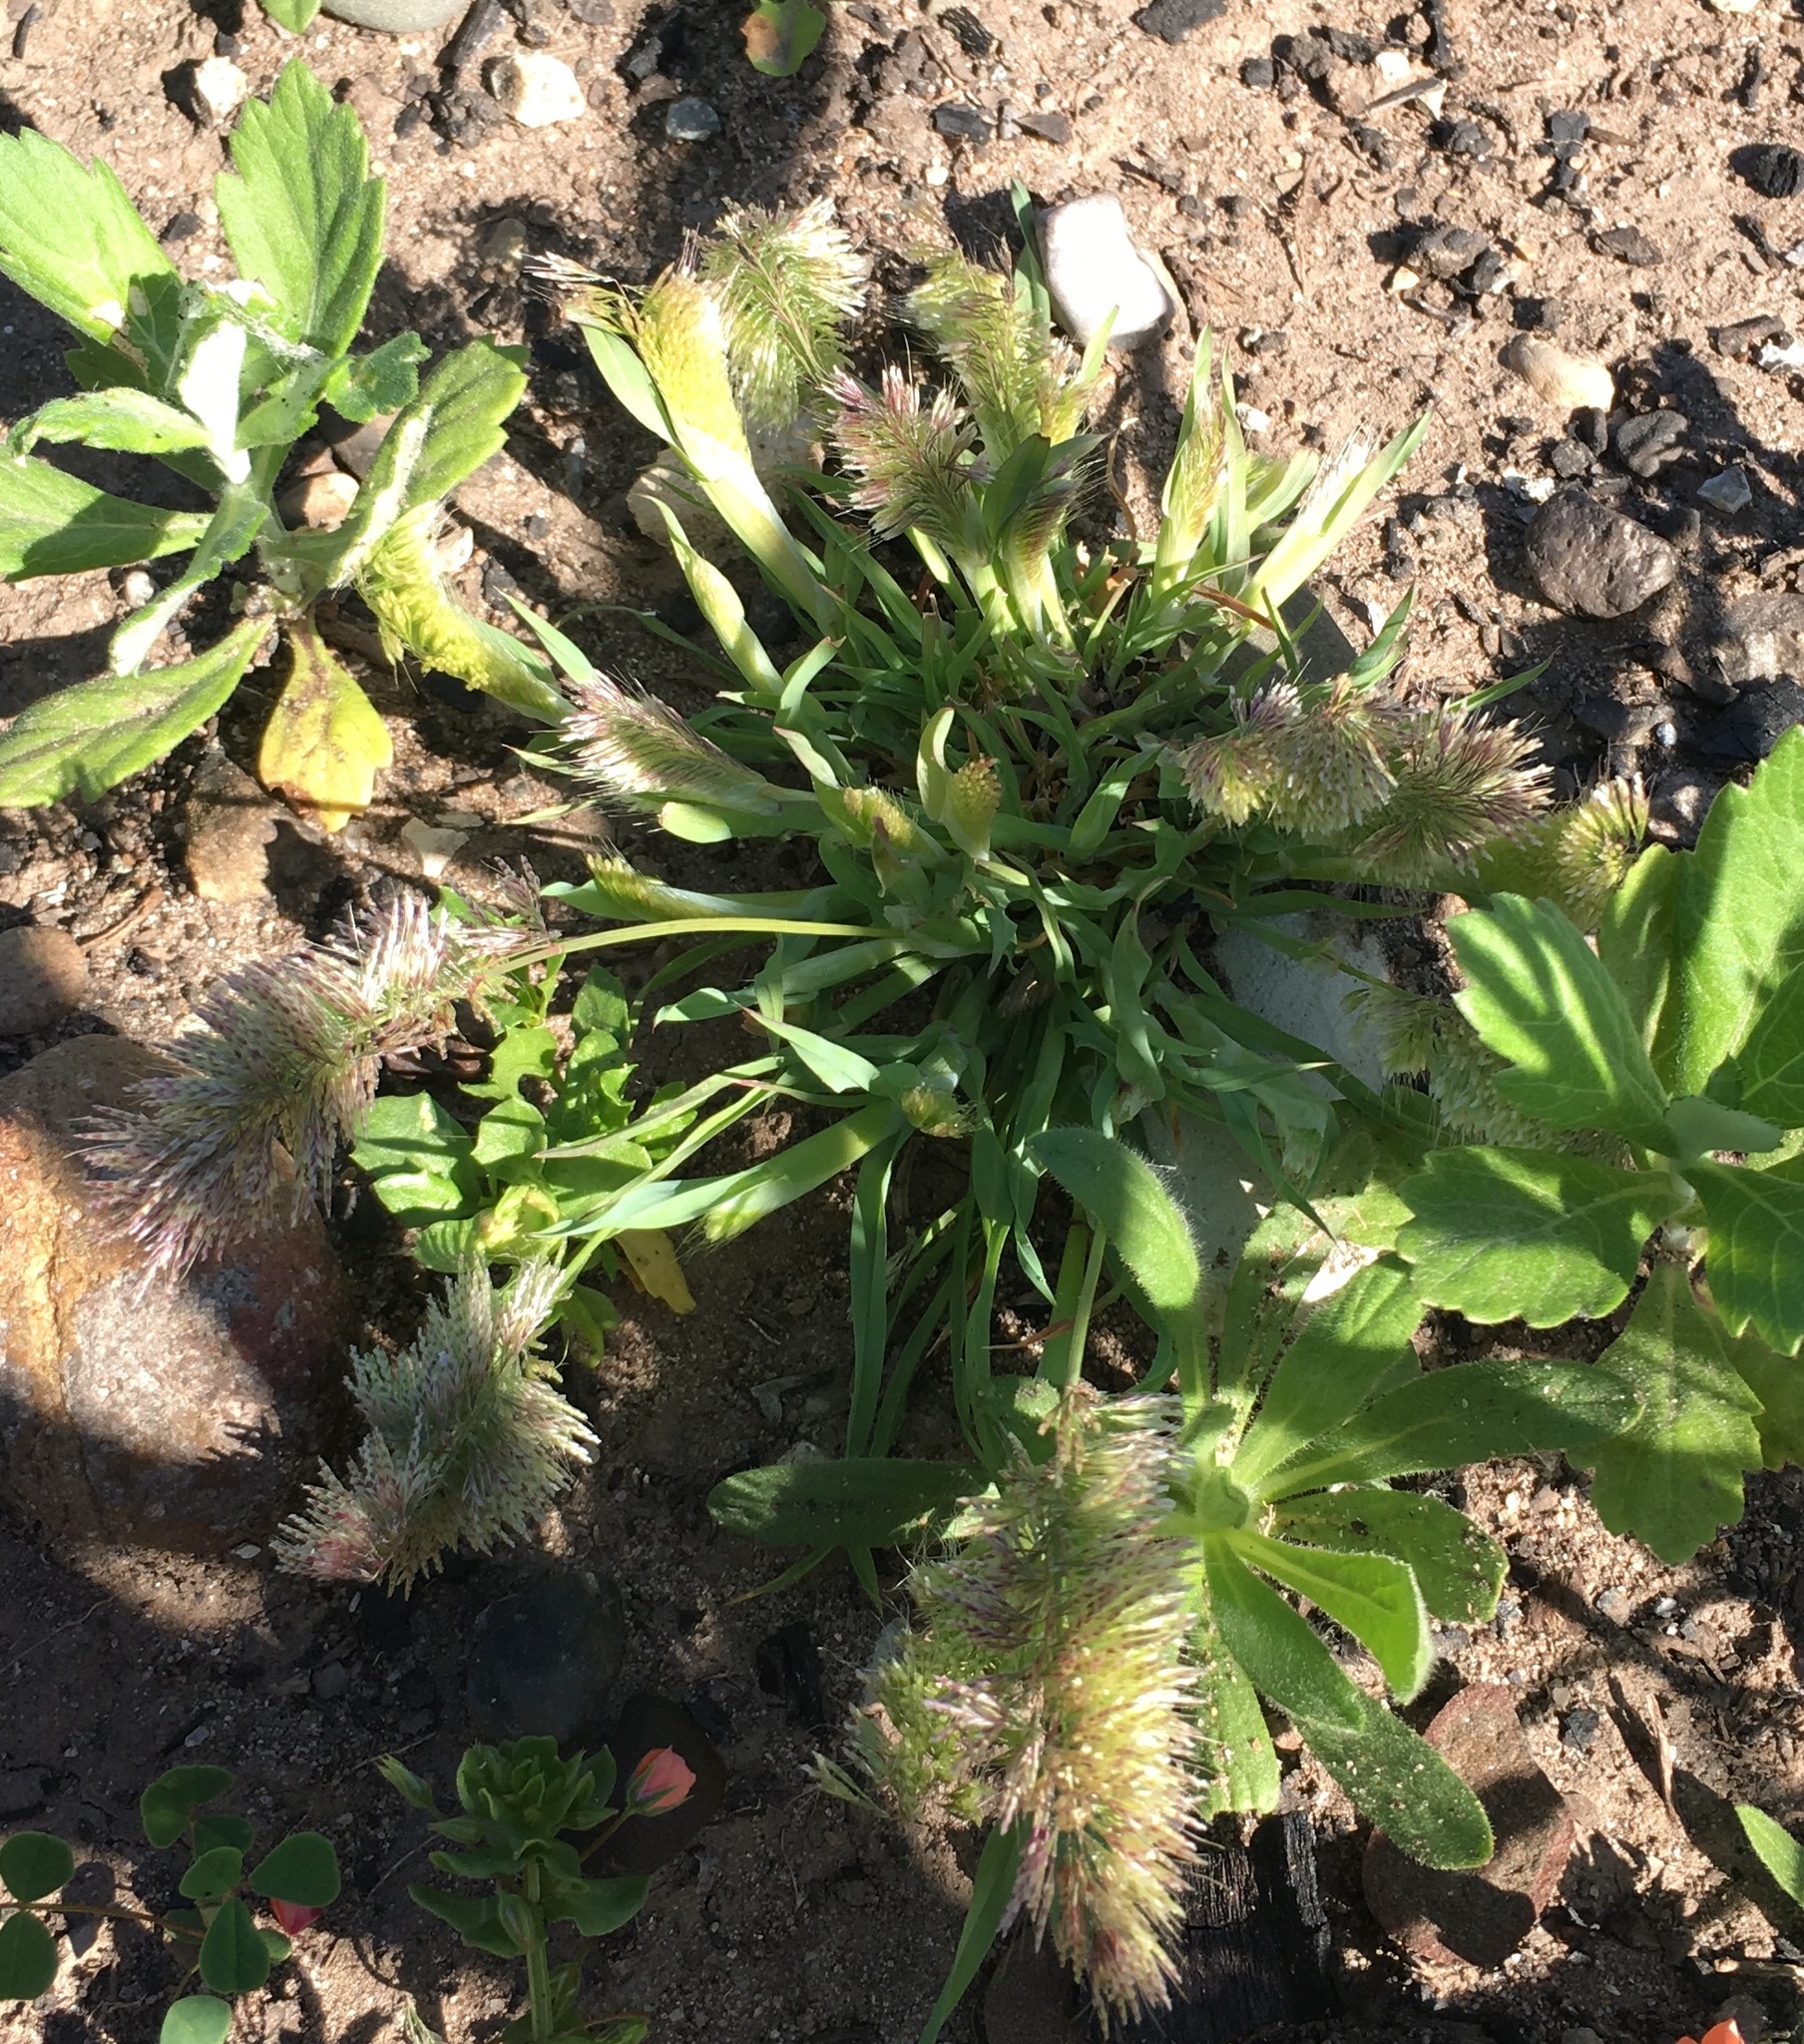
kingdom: Plantae
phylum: Tracheophyta
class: Liliopsida
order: Poales
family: Poaceae
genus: Lamarckia
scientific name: Lamarckia aurea
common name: Golden dog's-tail
